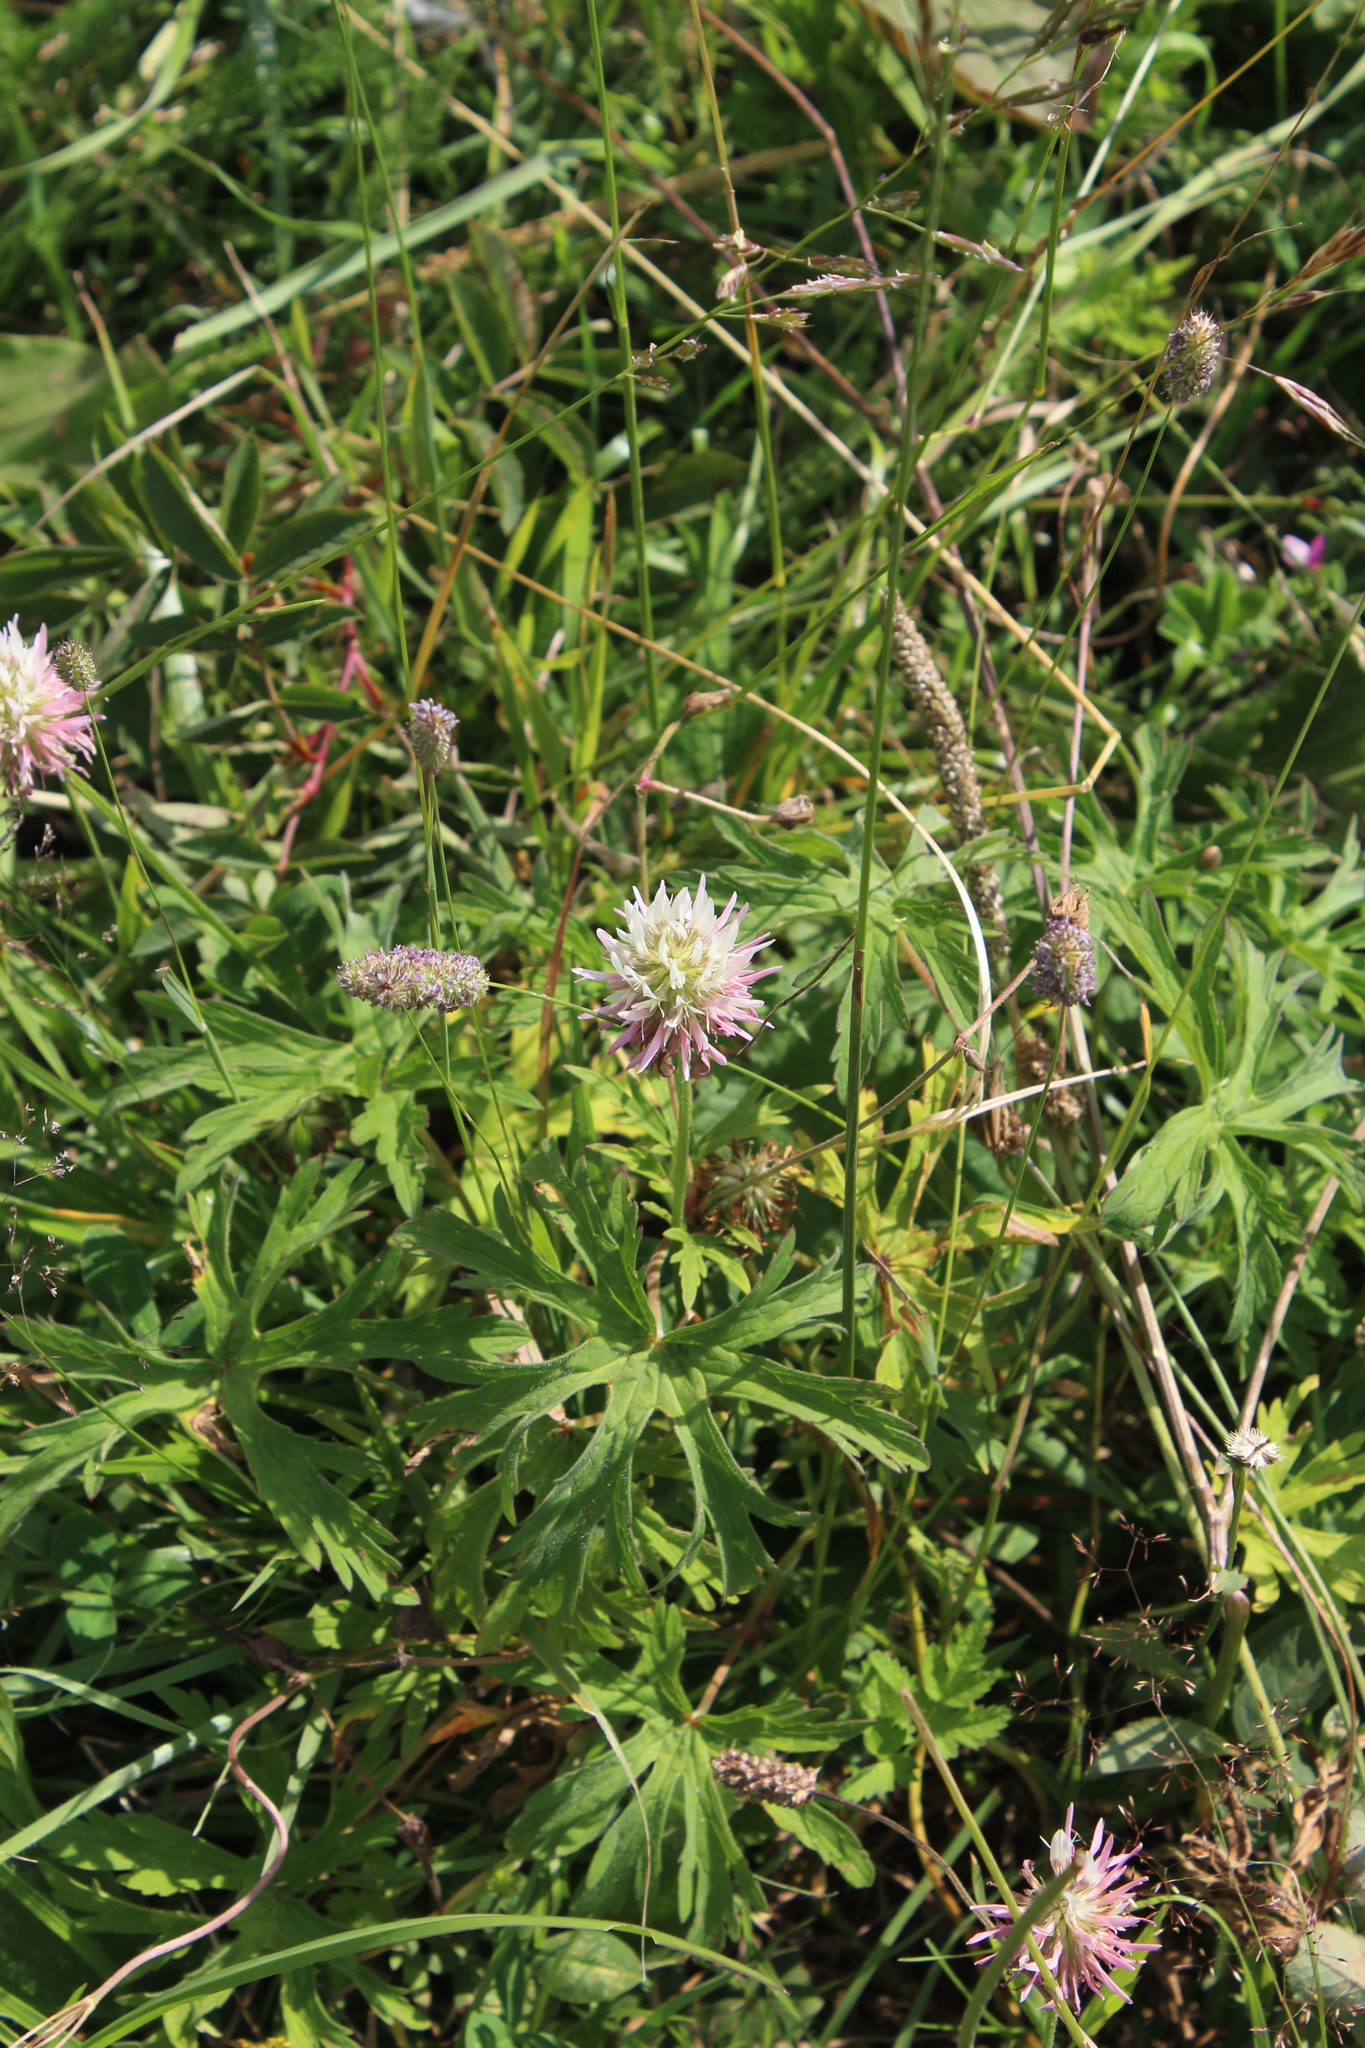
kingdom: Plantae
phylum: Tracheophyta
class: Magnoliopsida
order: Fabales
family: Fabaceae
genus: Trifolium
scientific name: Trifolium ambiguum
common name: Kura clover
